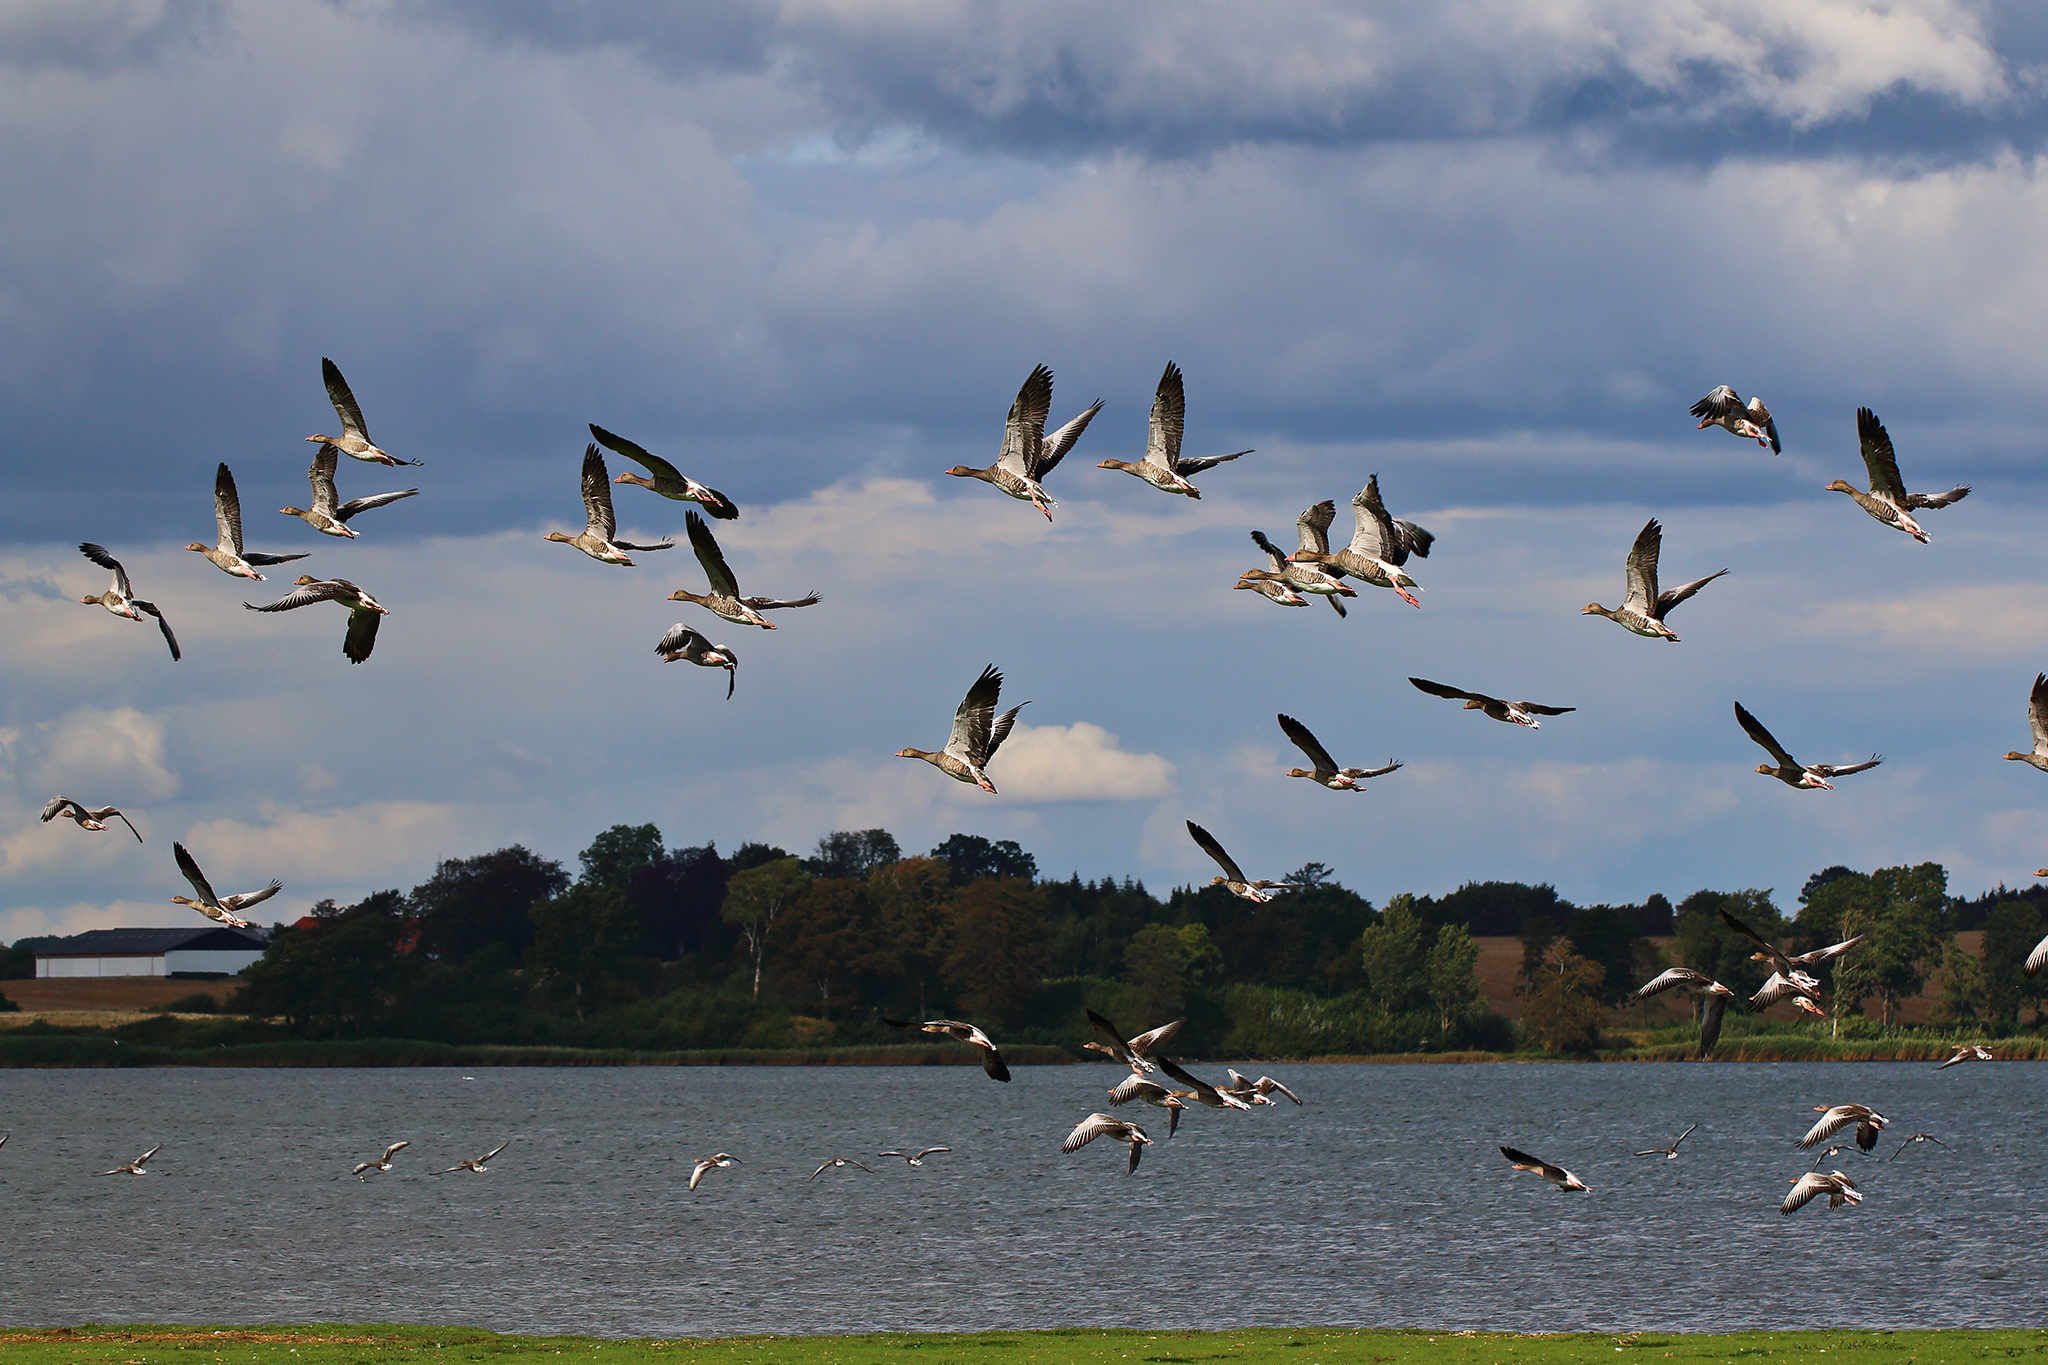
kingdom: Animalia
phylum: Chordata
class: Aves
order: Anseriformes
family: Anatidae
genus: Anser
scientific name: Anser anser
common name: Greylag goose
